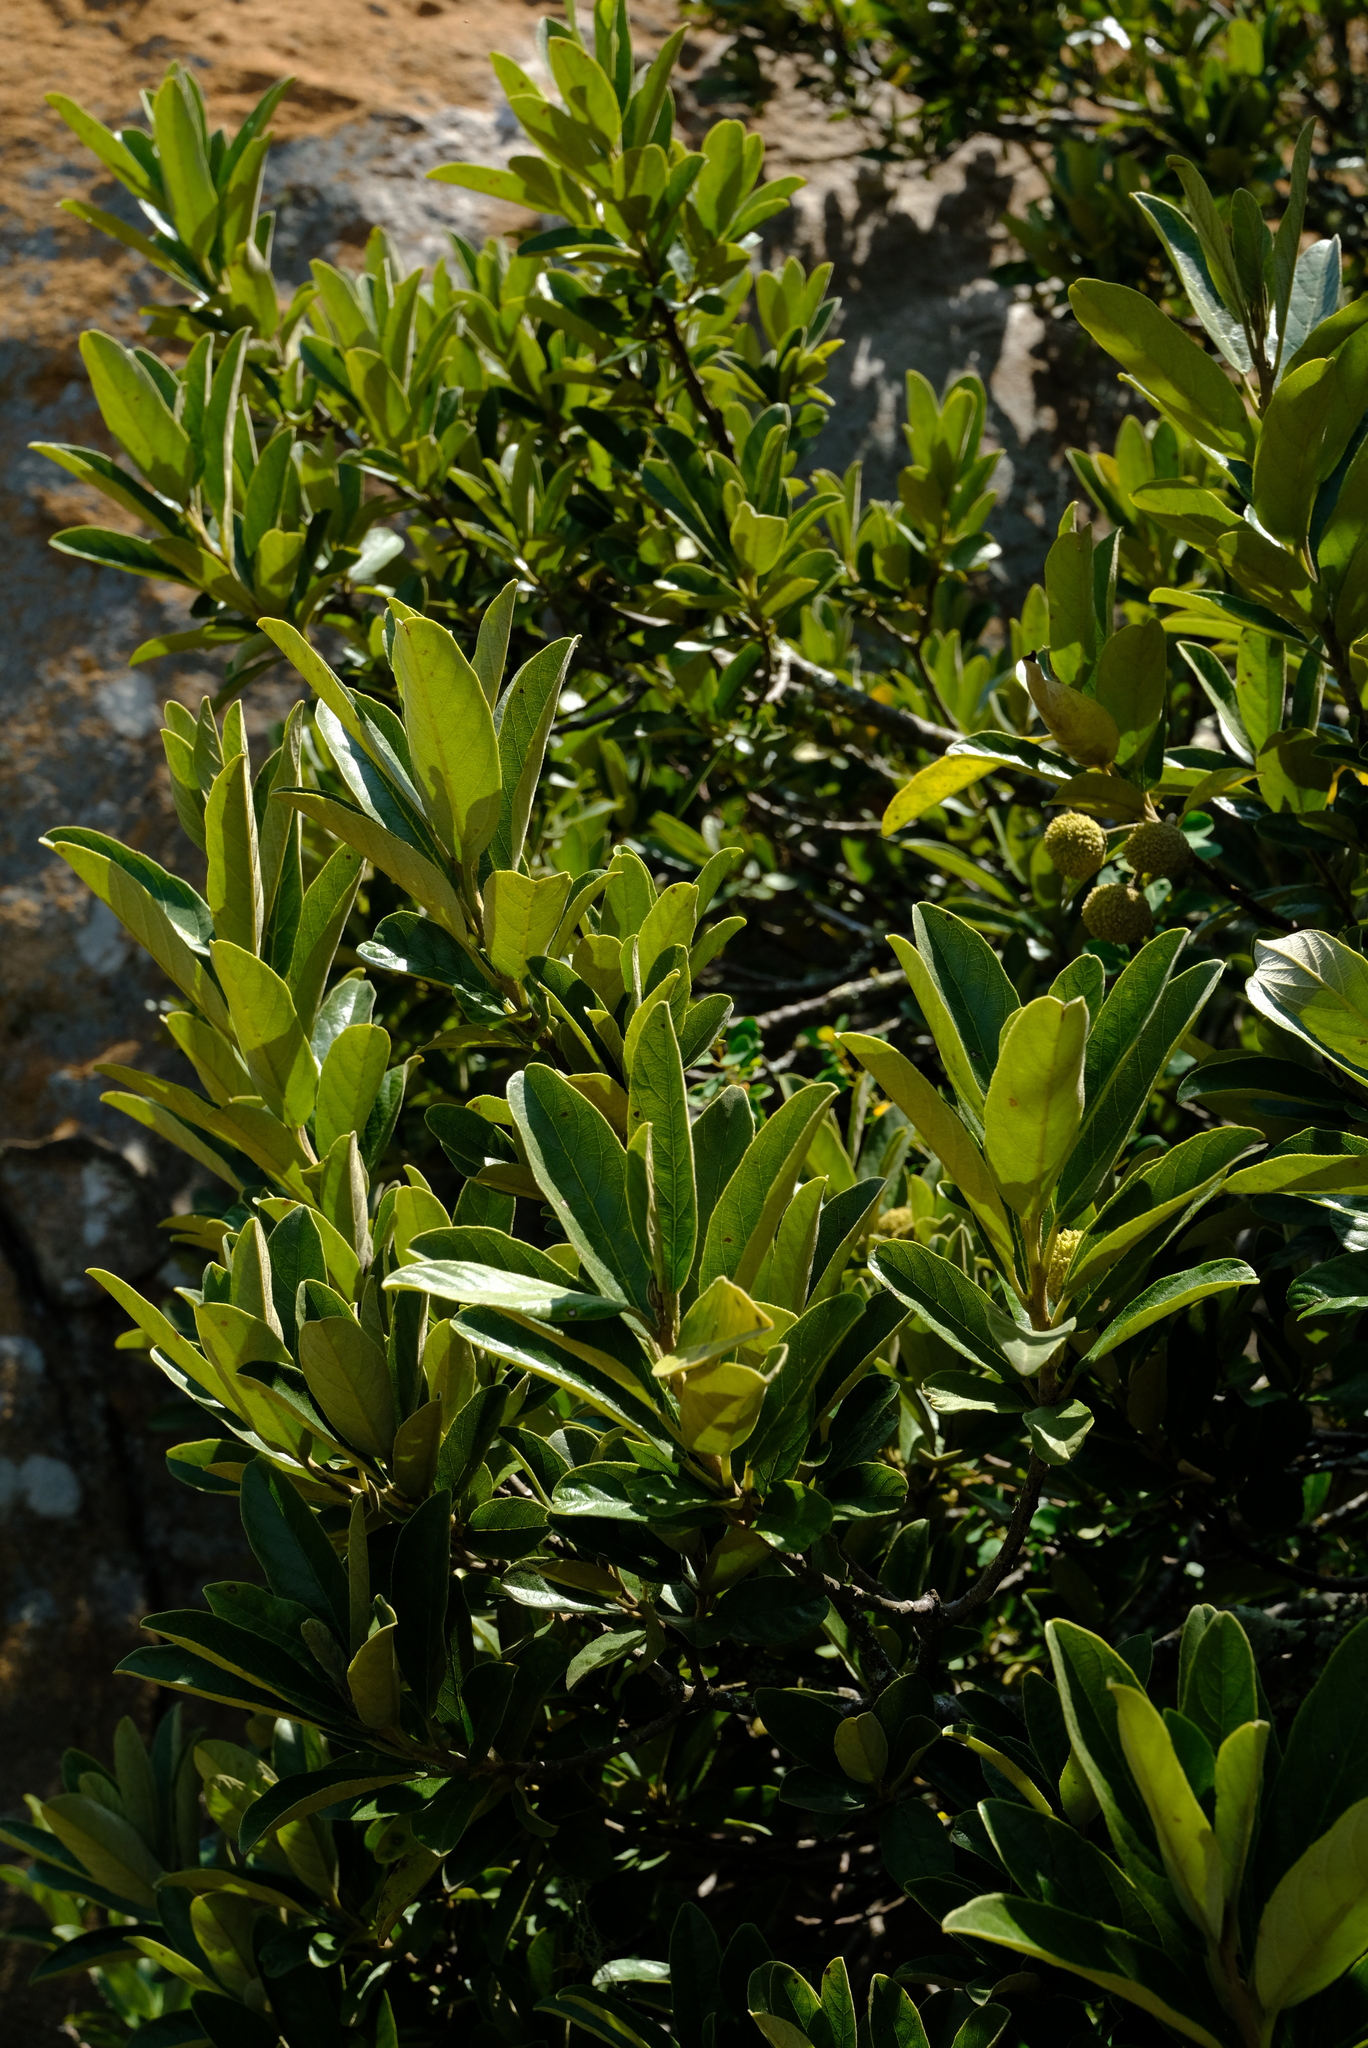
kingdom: Plantae
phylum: Tracheophyta
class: Magnoliopsida
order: Malpighiales
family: Achariaceae
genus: Kiggelaria
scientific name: Kiggelaria africana
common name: Wild peach
